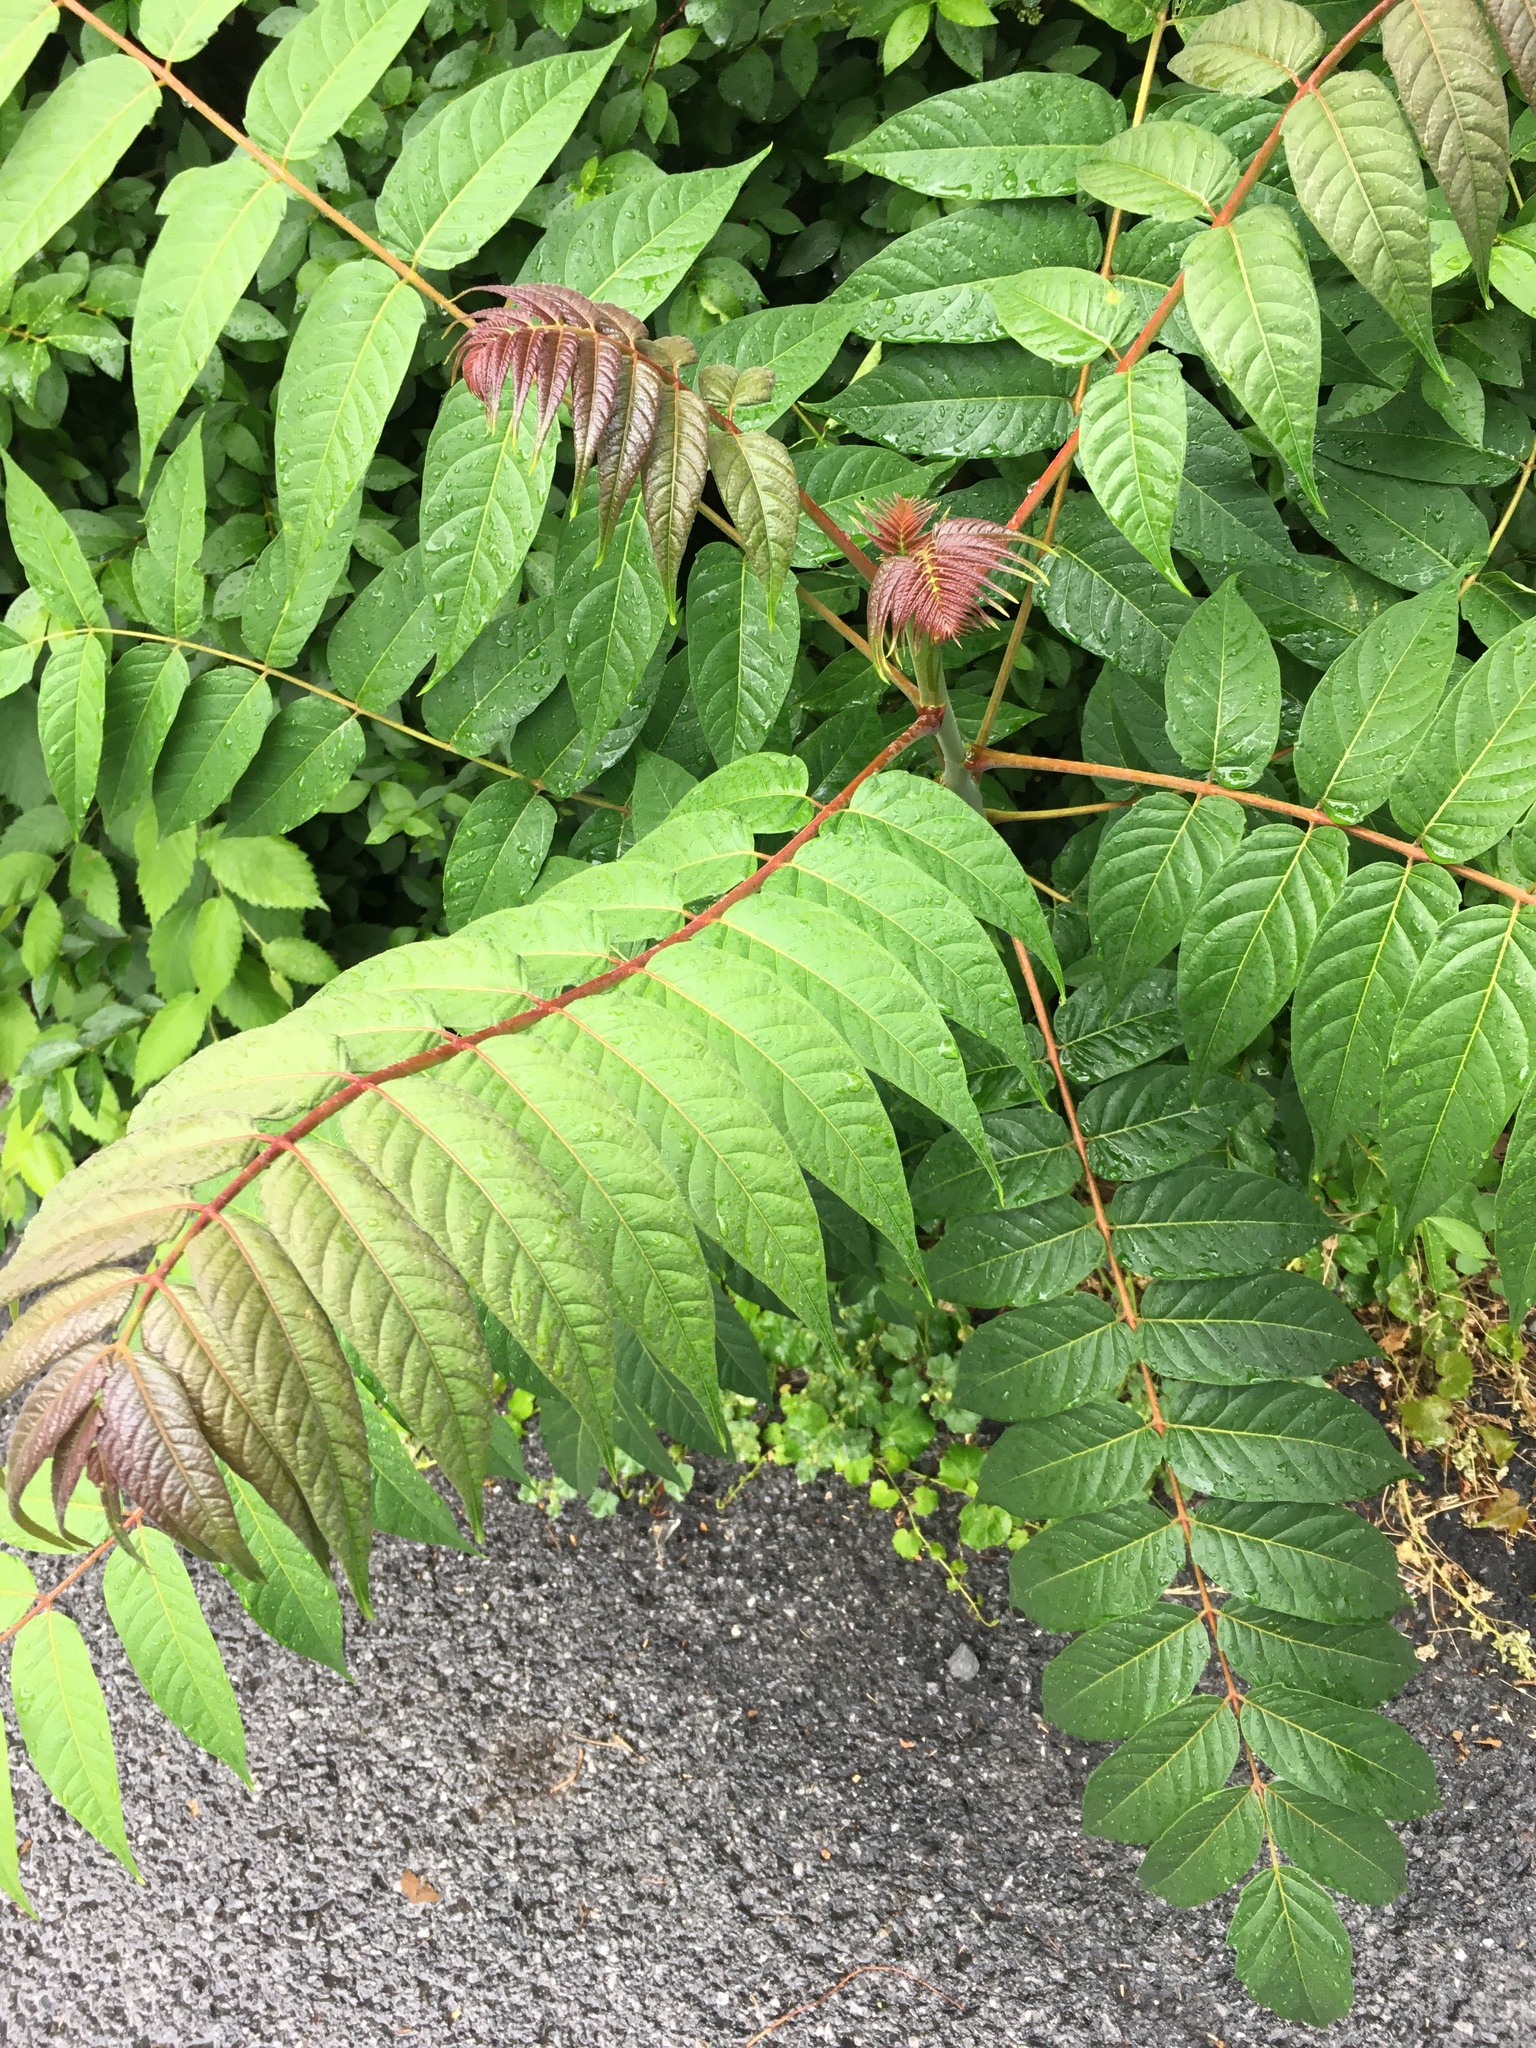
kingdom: Plantae
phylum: Tracheophyta
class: Magnoliopsida
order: Sapindales
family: Simaroubaceae
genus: Ailanthus
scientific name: Ailanthus altissima
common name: Tree-of-heaven
